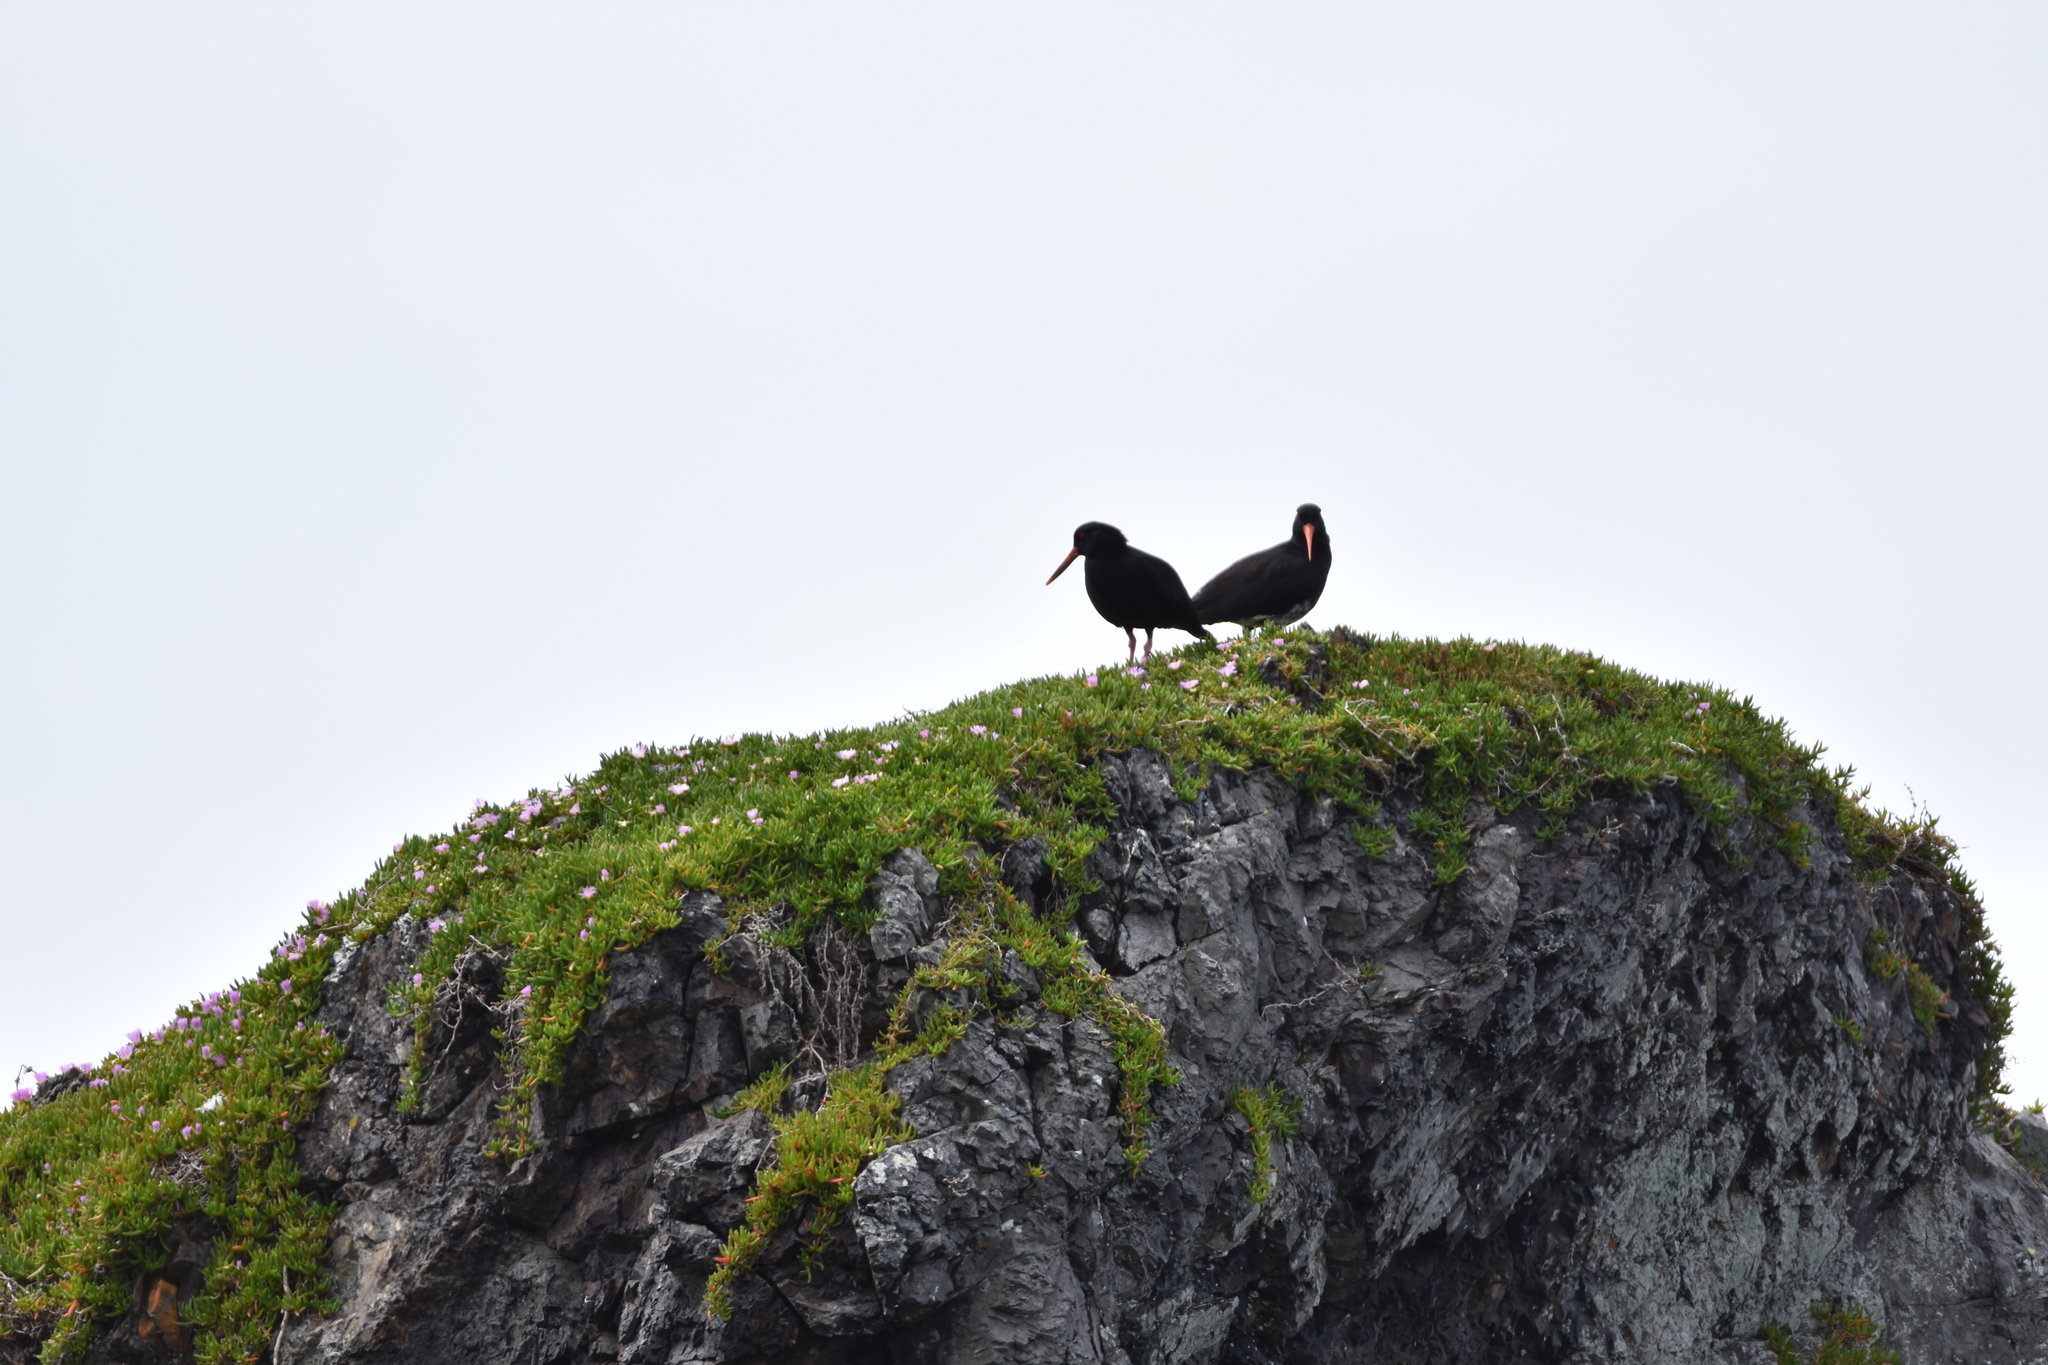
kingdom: Animalia
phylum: Chordata
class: Aves
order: Charadriiformes
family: Haematopodidae
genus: Haematopus
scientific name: Haematopus unicolor
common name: Variable oystercatcher
